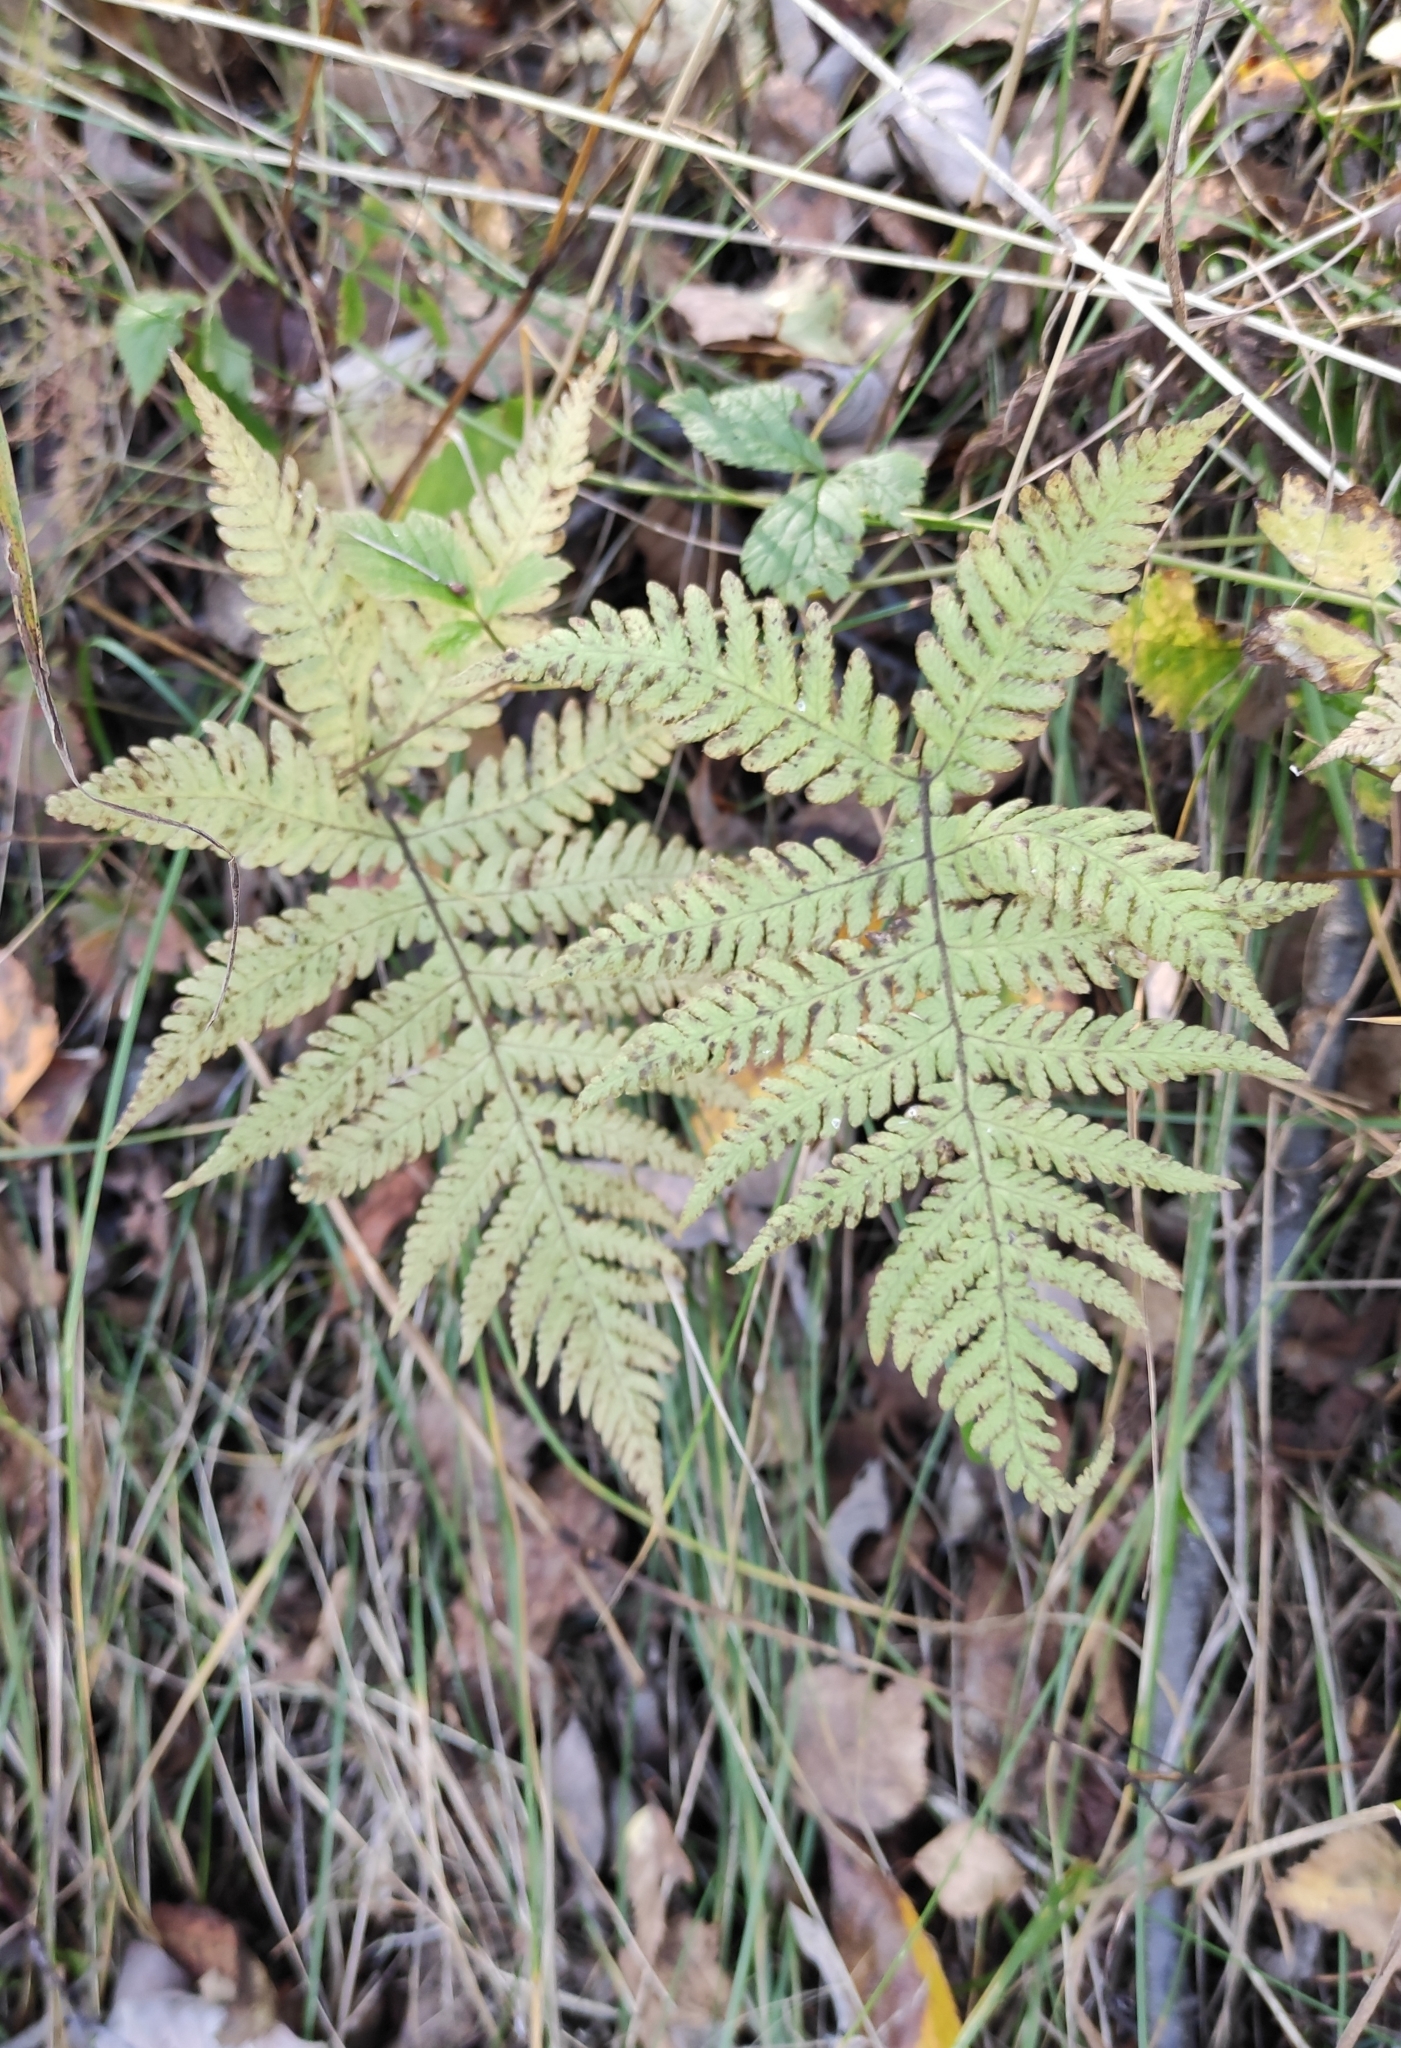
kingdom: Plantae
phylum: Tracheophyta
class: Polypodiopsida
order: Polypodiales
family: Thelypteridaceae
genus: Phegopteris
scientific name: Phegopteris connectilis
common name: Beech fern
